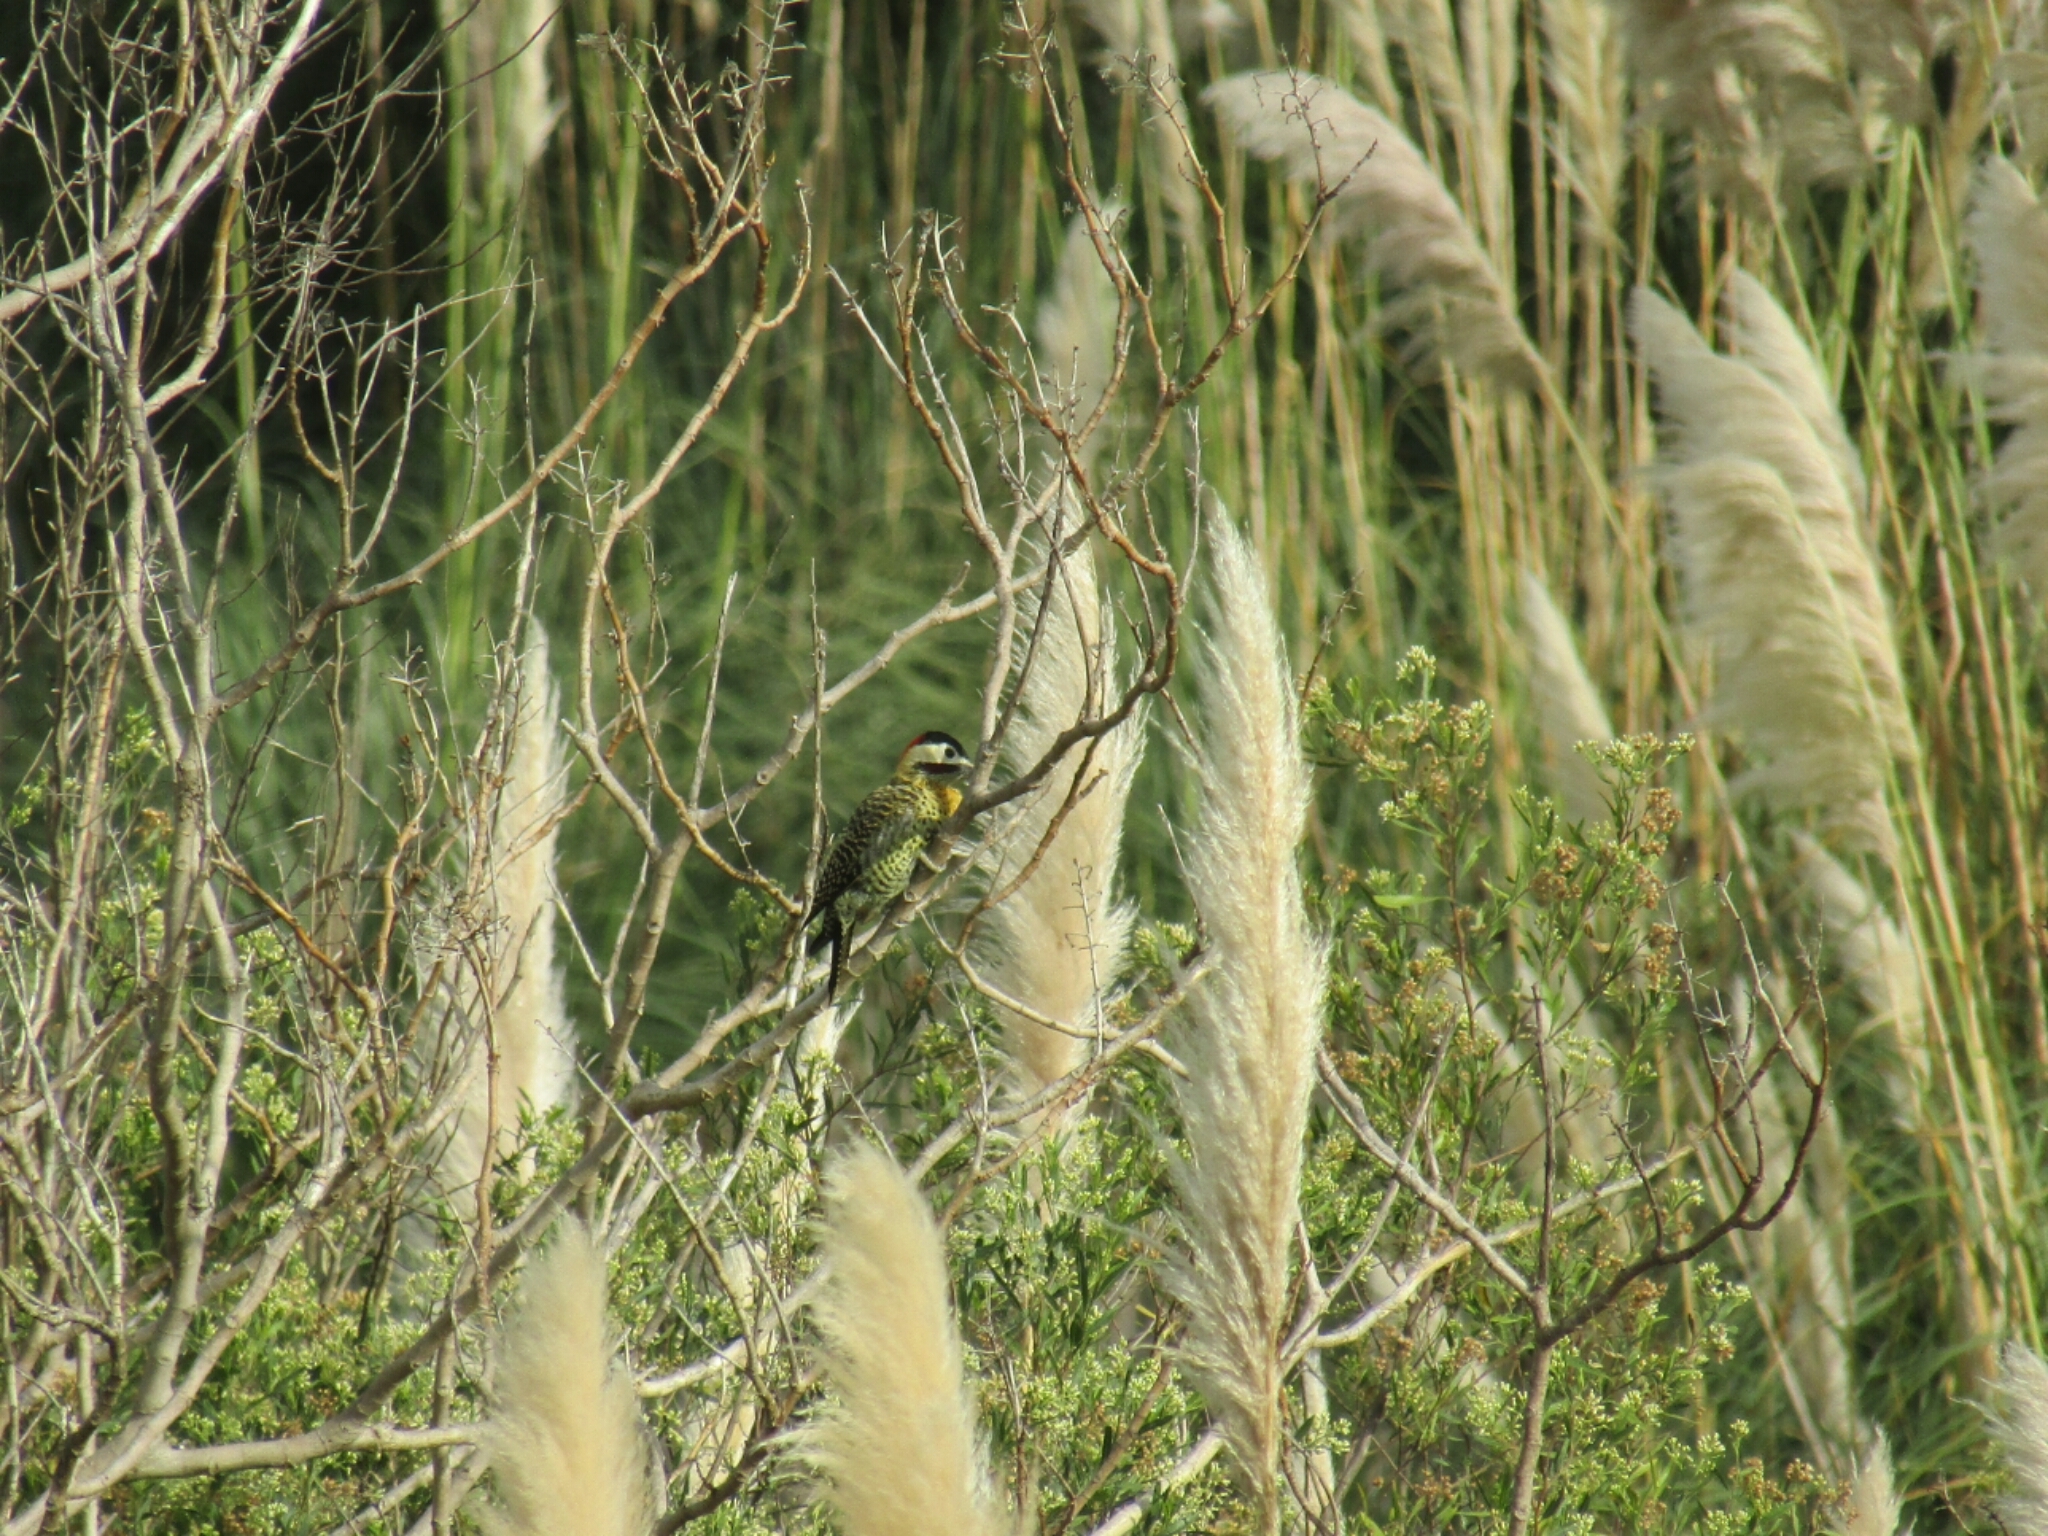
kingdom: Animalia
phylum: Chordata
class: Aves
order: Piciformes
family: Picidae
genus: Colaptes
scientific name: Colaptes melanochloros
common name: Green-barred woodpecker
